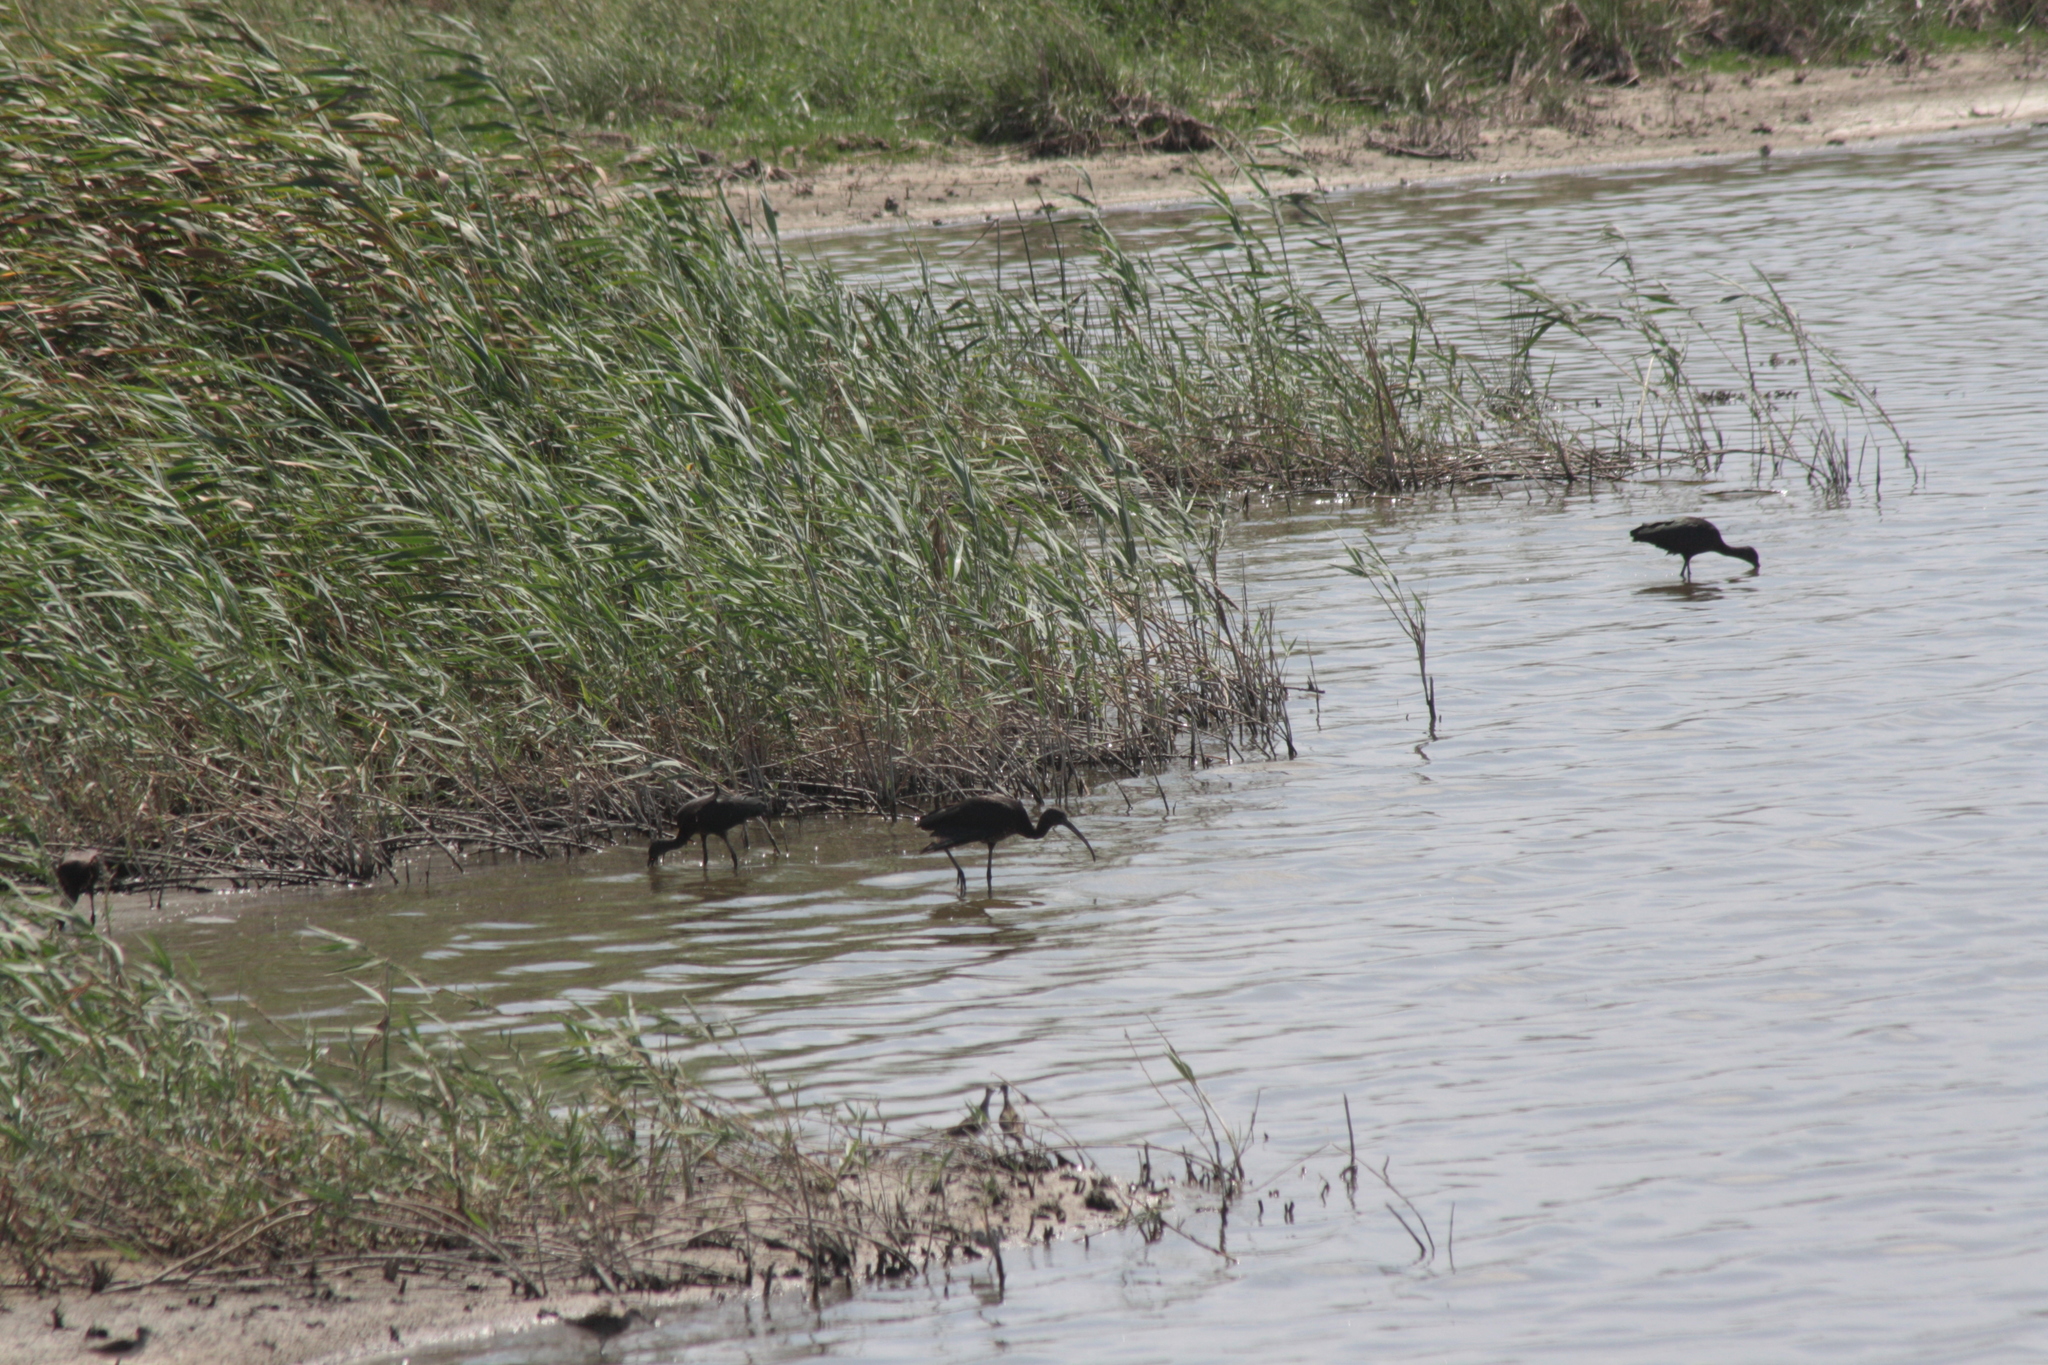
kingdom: Animalia
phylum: Chordata
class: Aves
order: Pelecaniformes
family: Threskiornithidae
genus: Plegadis
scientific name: Plegadis falcinellus
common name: Glossy ibis
